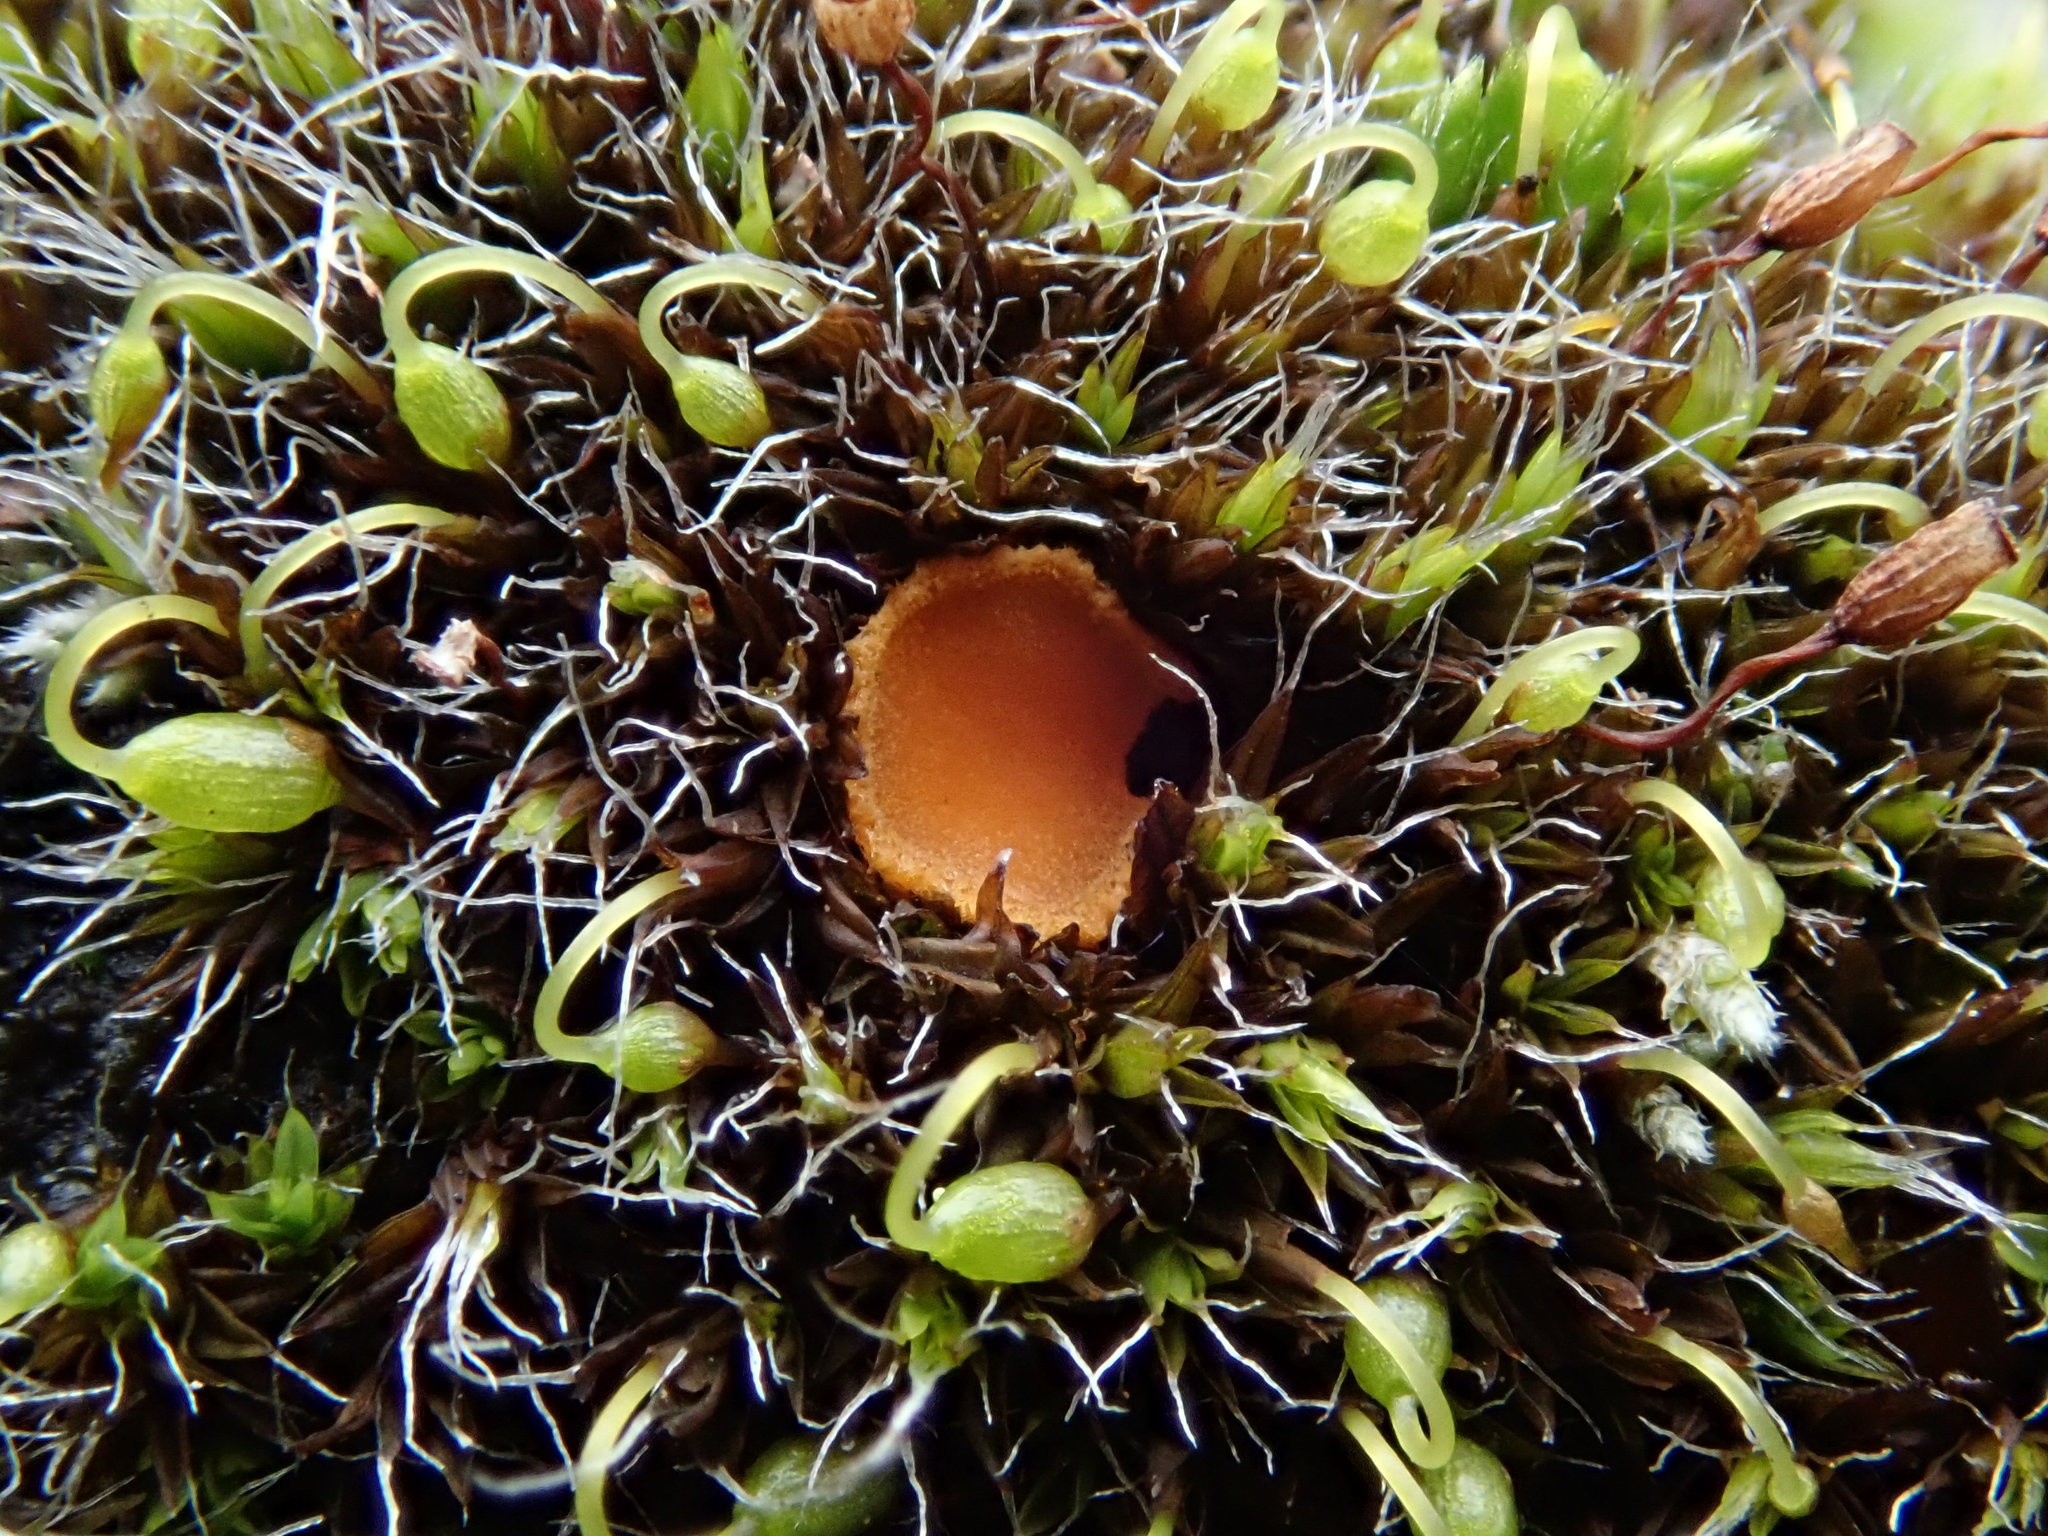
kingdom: Fungi
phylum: Ascomycota
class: Pezizomycetes
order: Pezizales
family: Pyronemataceae
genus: Octospora
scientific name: Octospora musci-muralis
